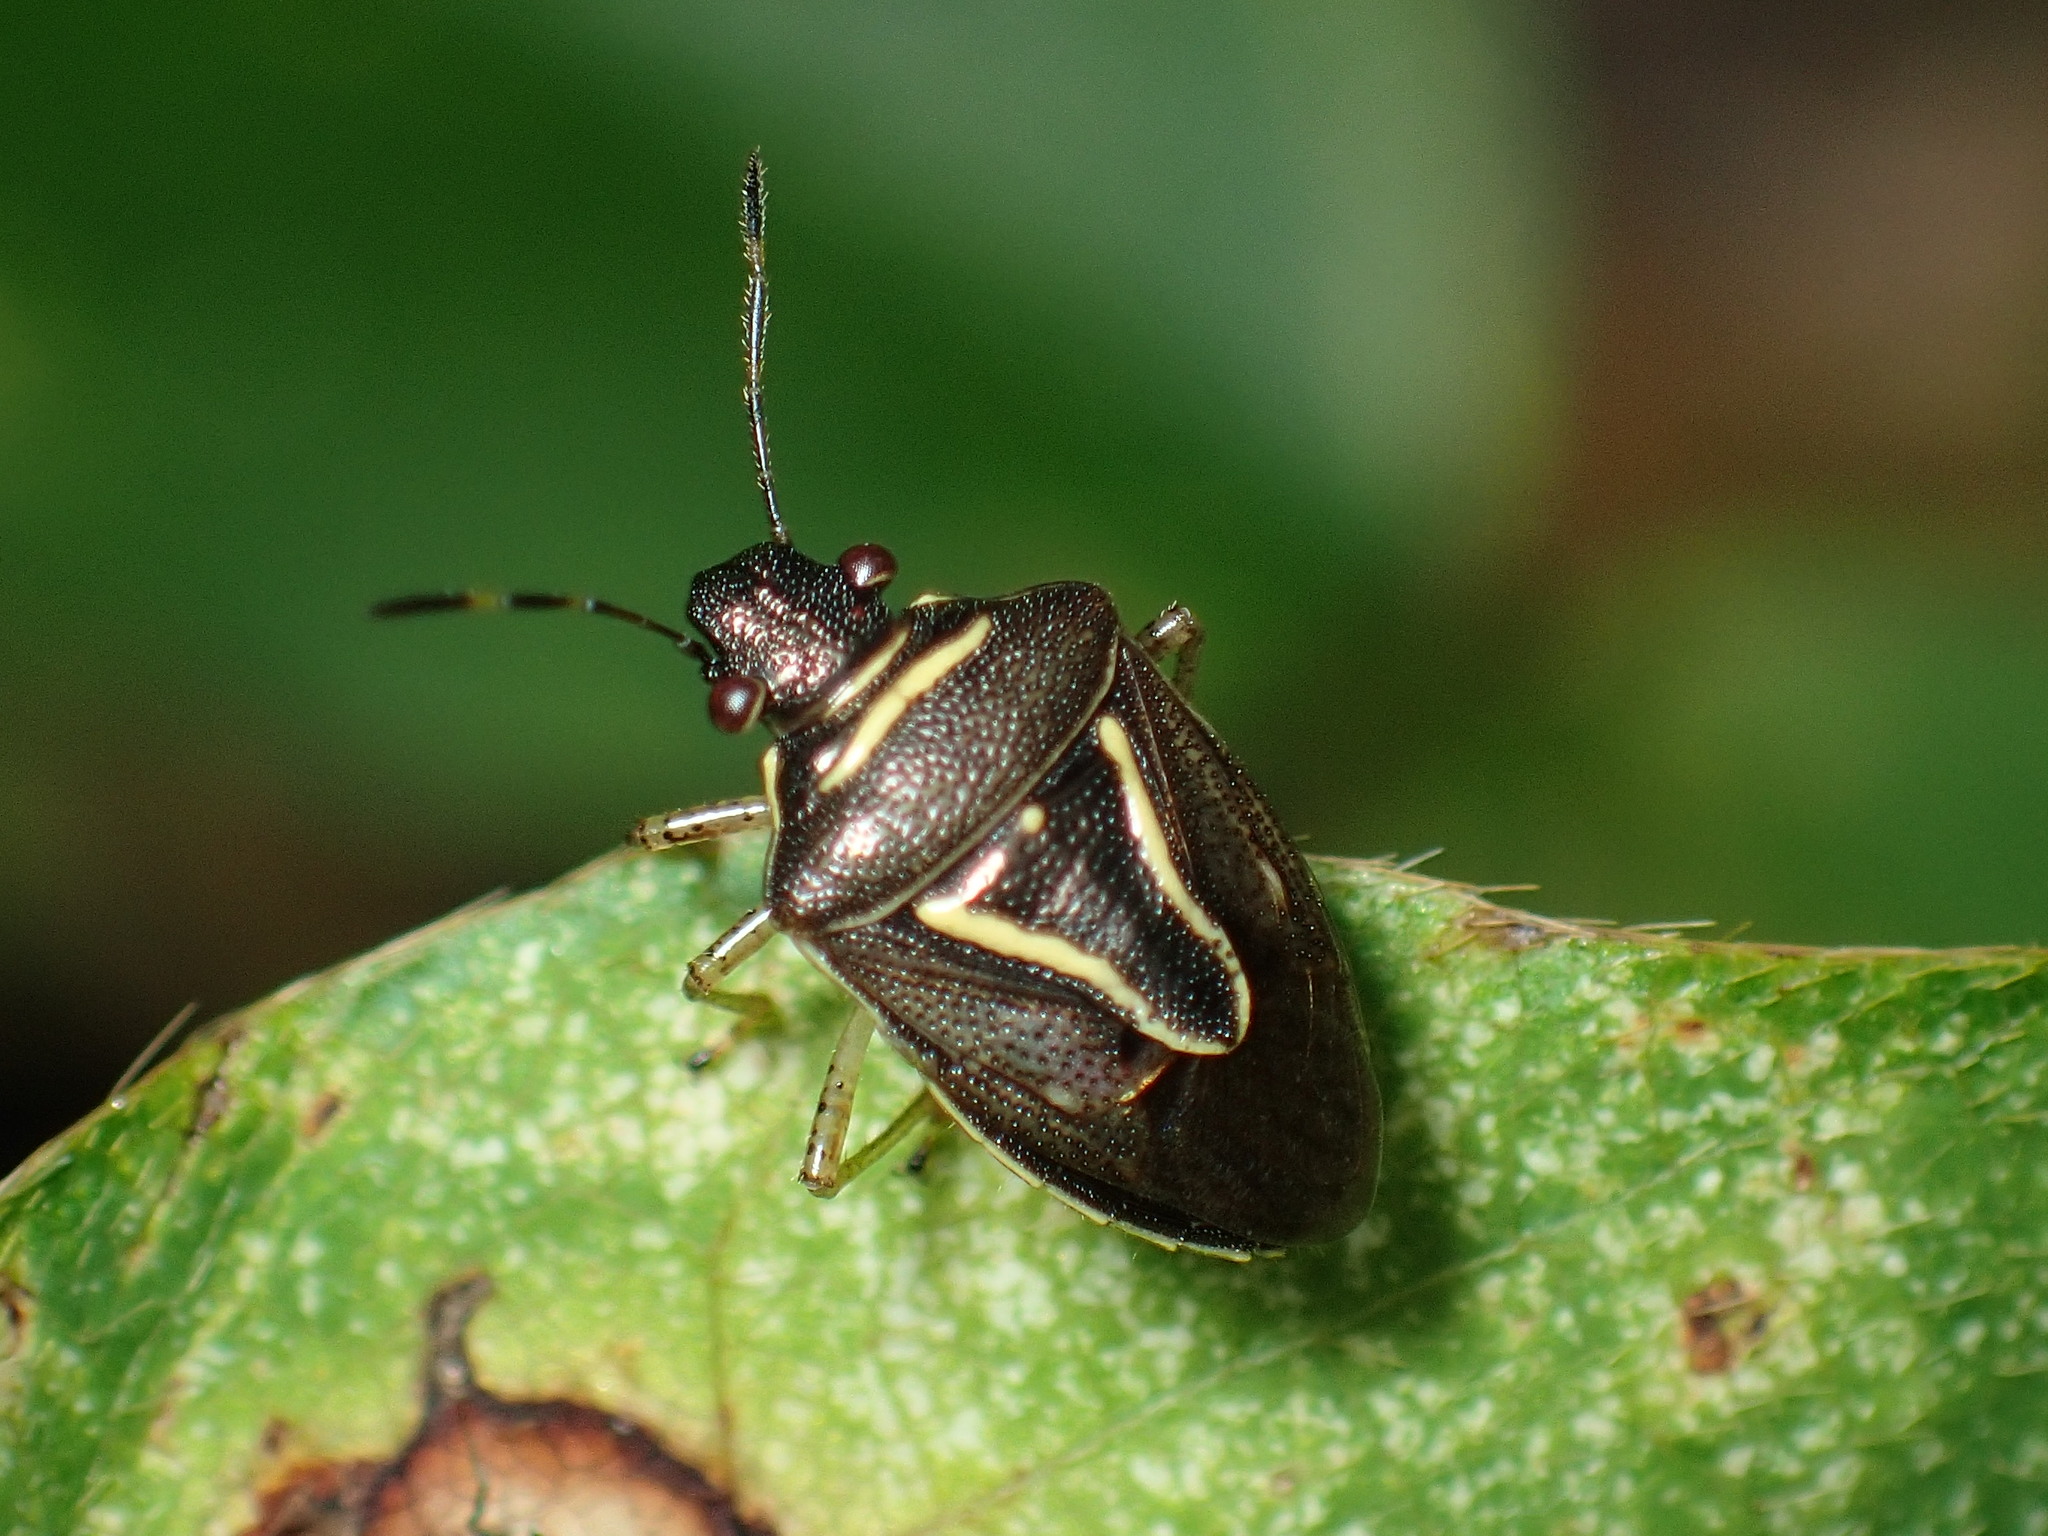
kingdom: Animalia
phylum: Arthropoda
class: Insecta
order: Hemiptera
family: Pentatomidae
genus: Mormidea
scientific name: Mormidea lugens
